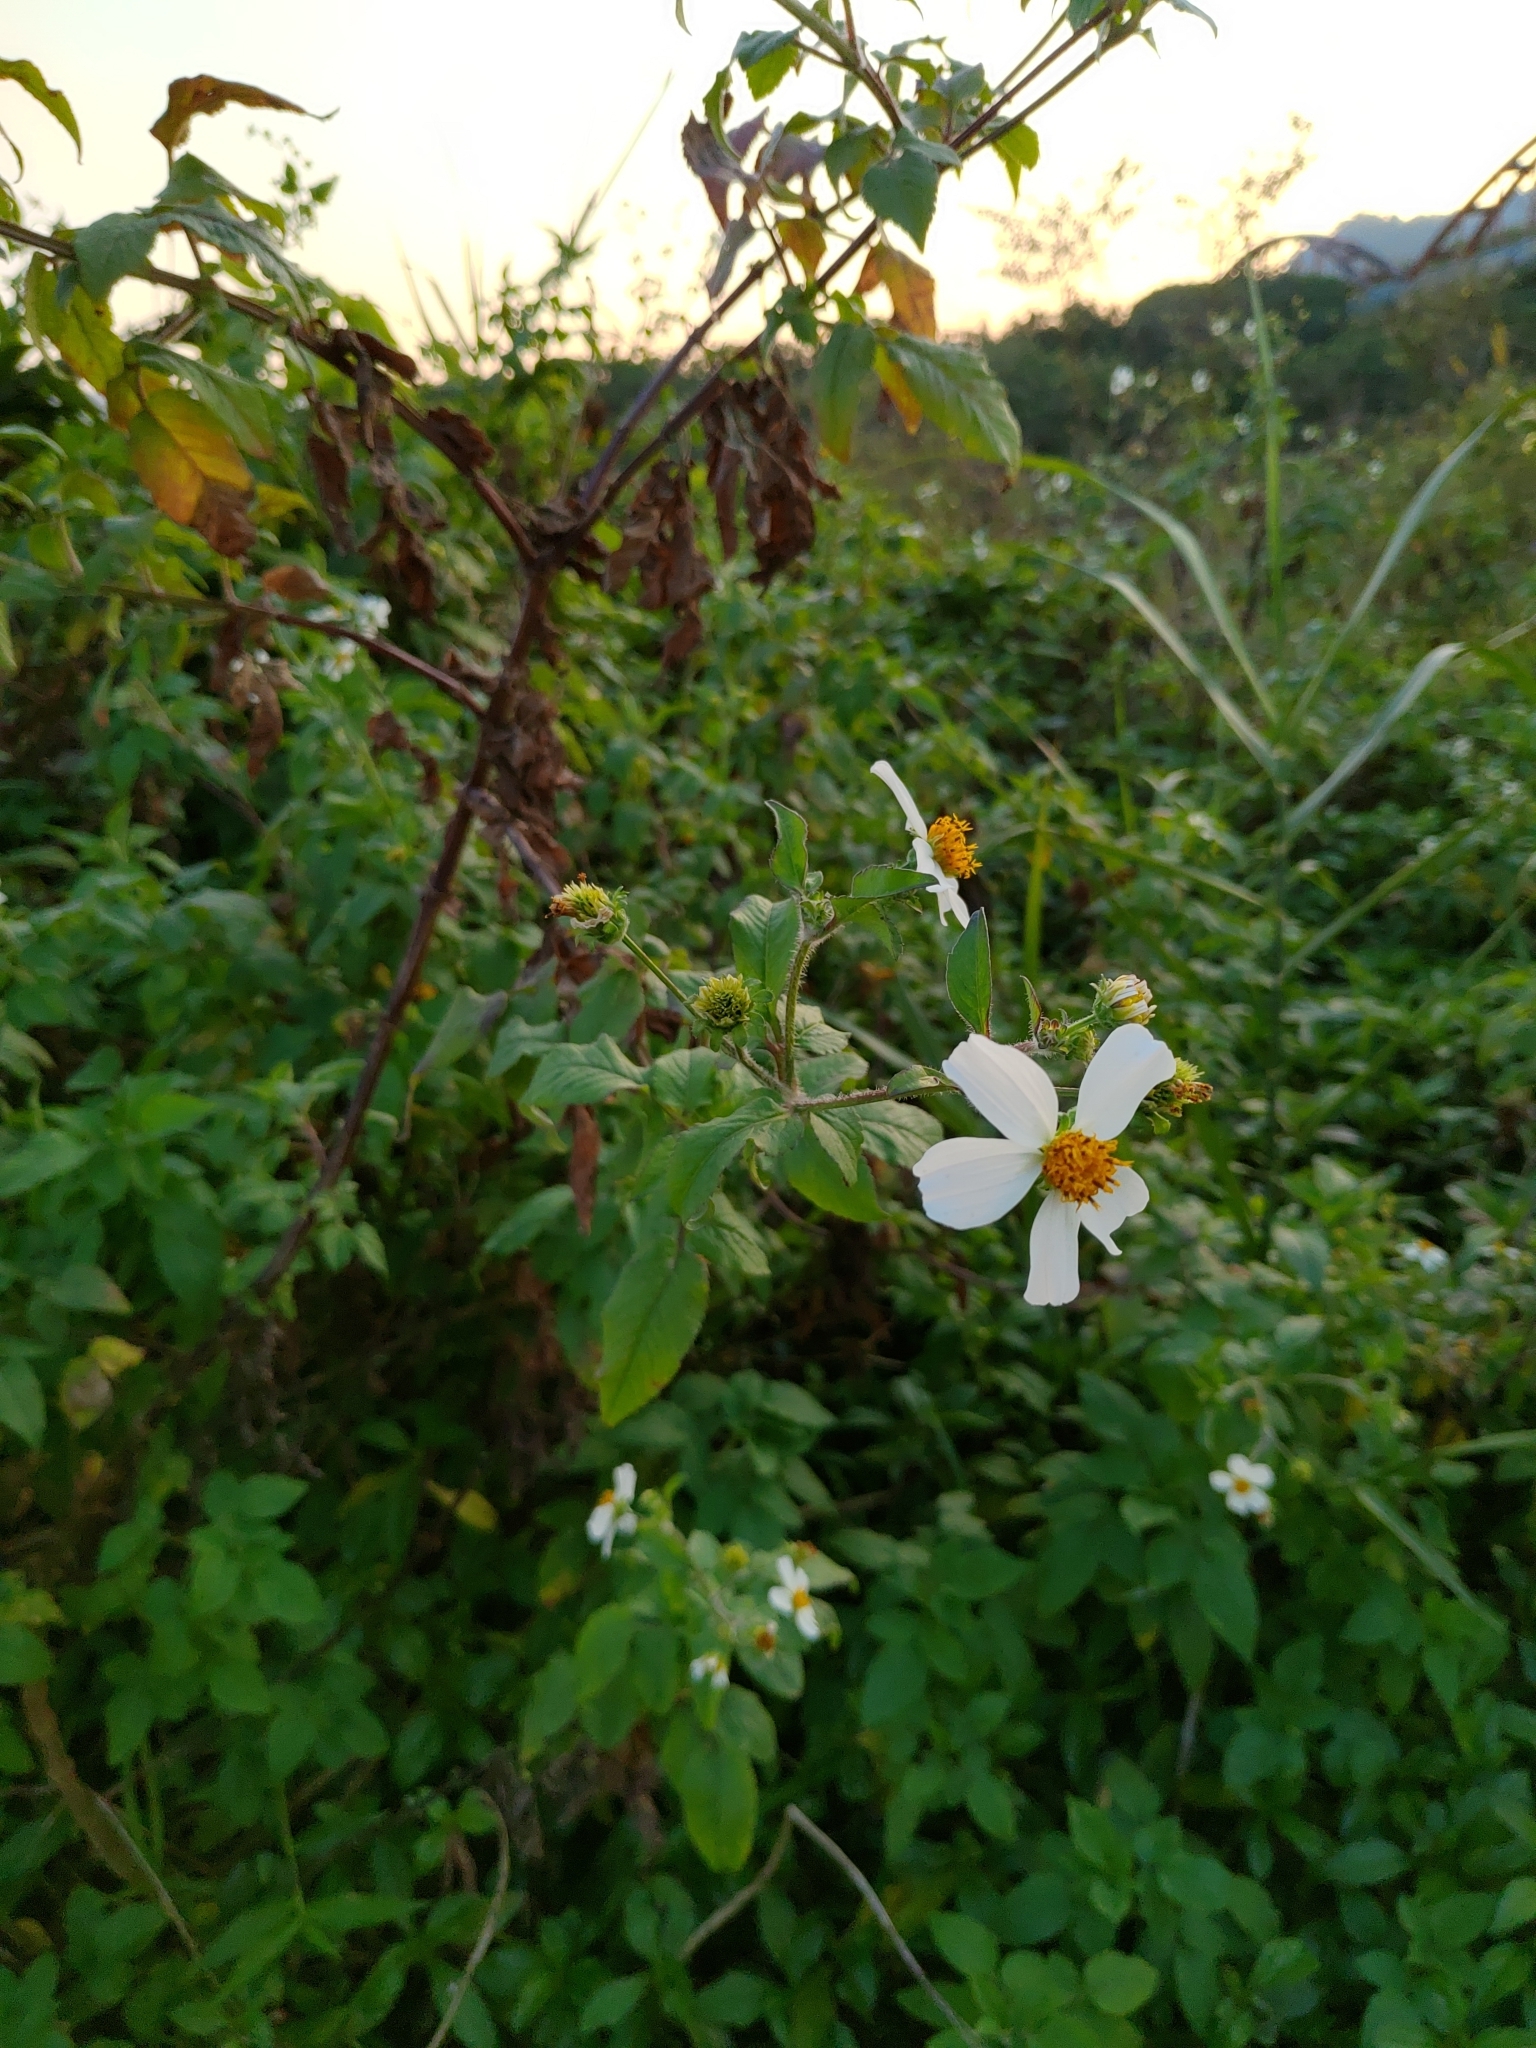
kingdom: Plantae
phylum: Tracheophyta
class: Magnoliopsida
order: Asterales
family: Asteraceae
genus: Bidens
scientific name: Bidens pilosa
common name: Black-jack
